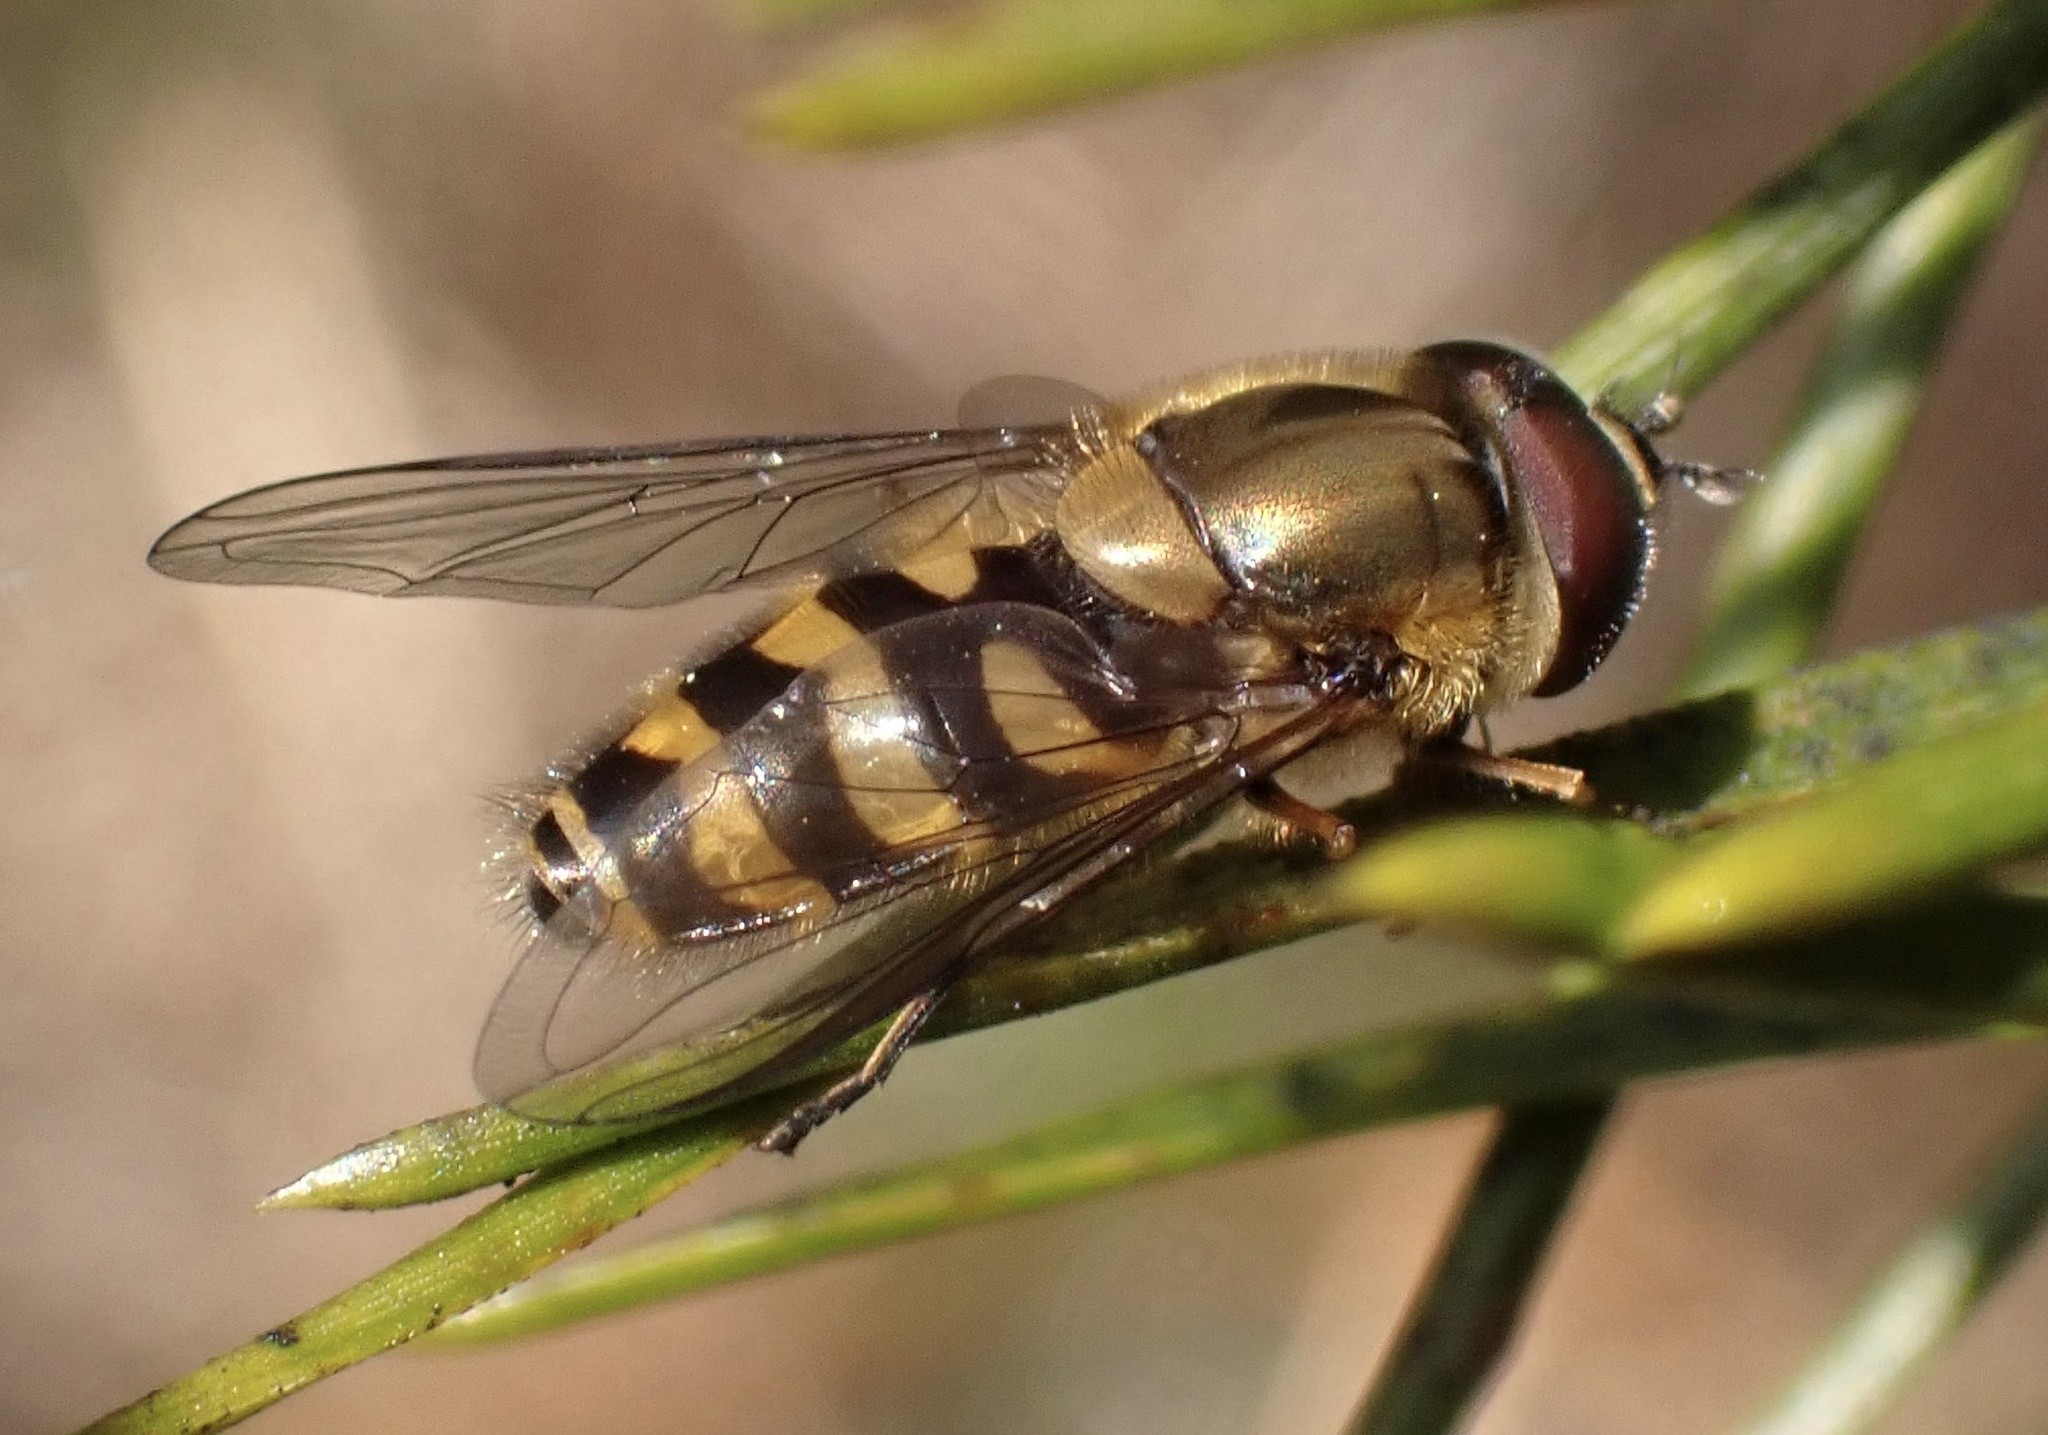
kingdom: Animalia
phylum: Arthropoda
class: Insecta
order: Diptera
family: Syrphidae
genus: Syrphus
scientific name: Syrphus torvus
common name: Hairy-eyed flower fly
